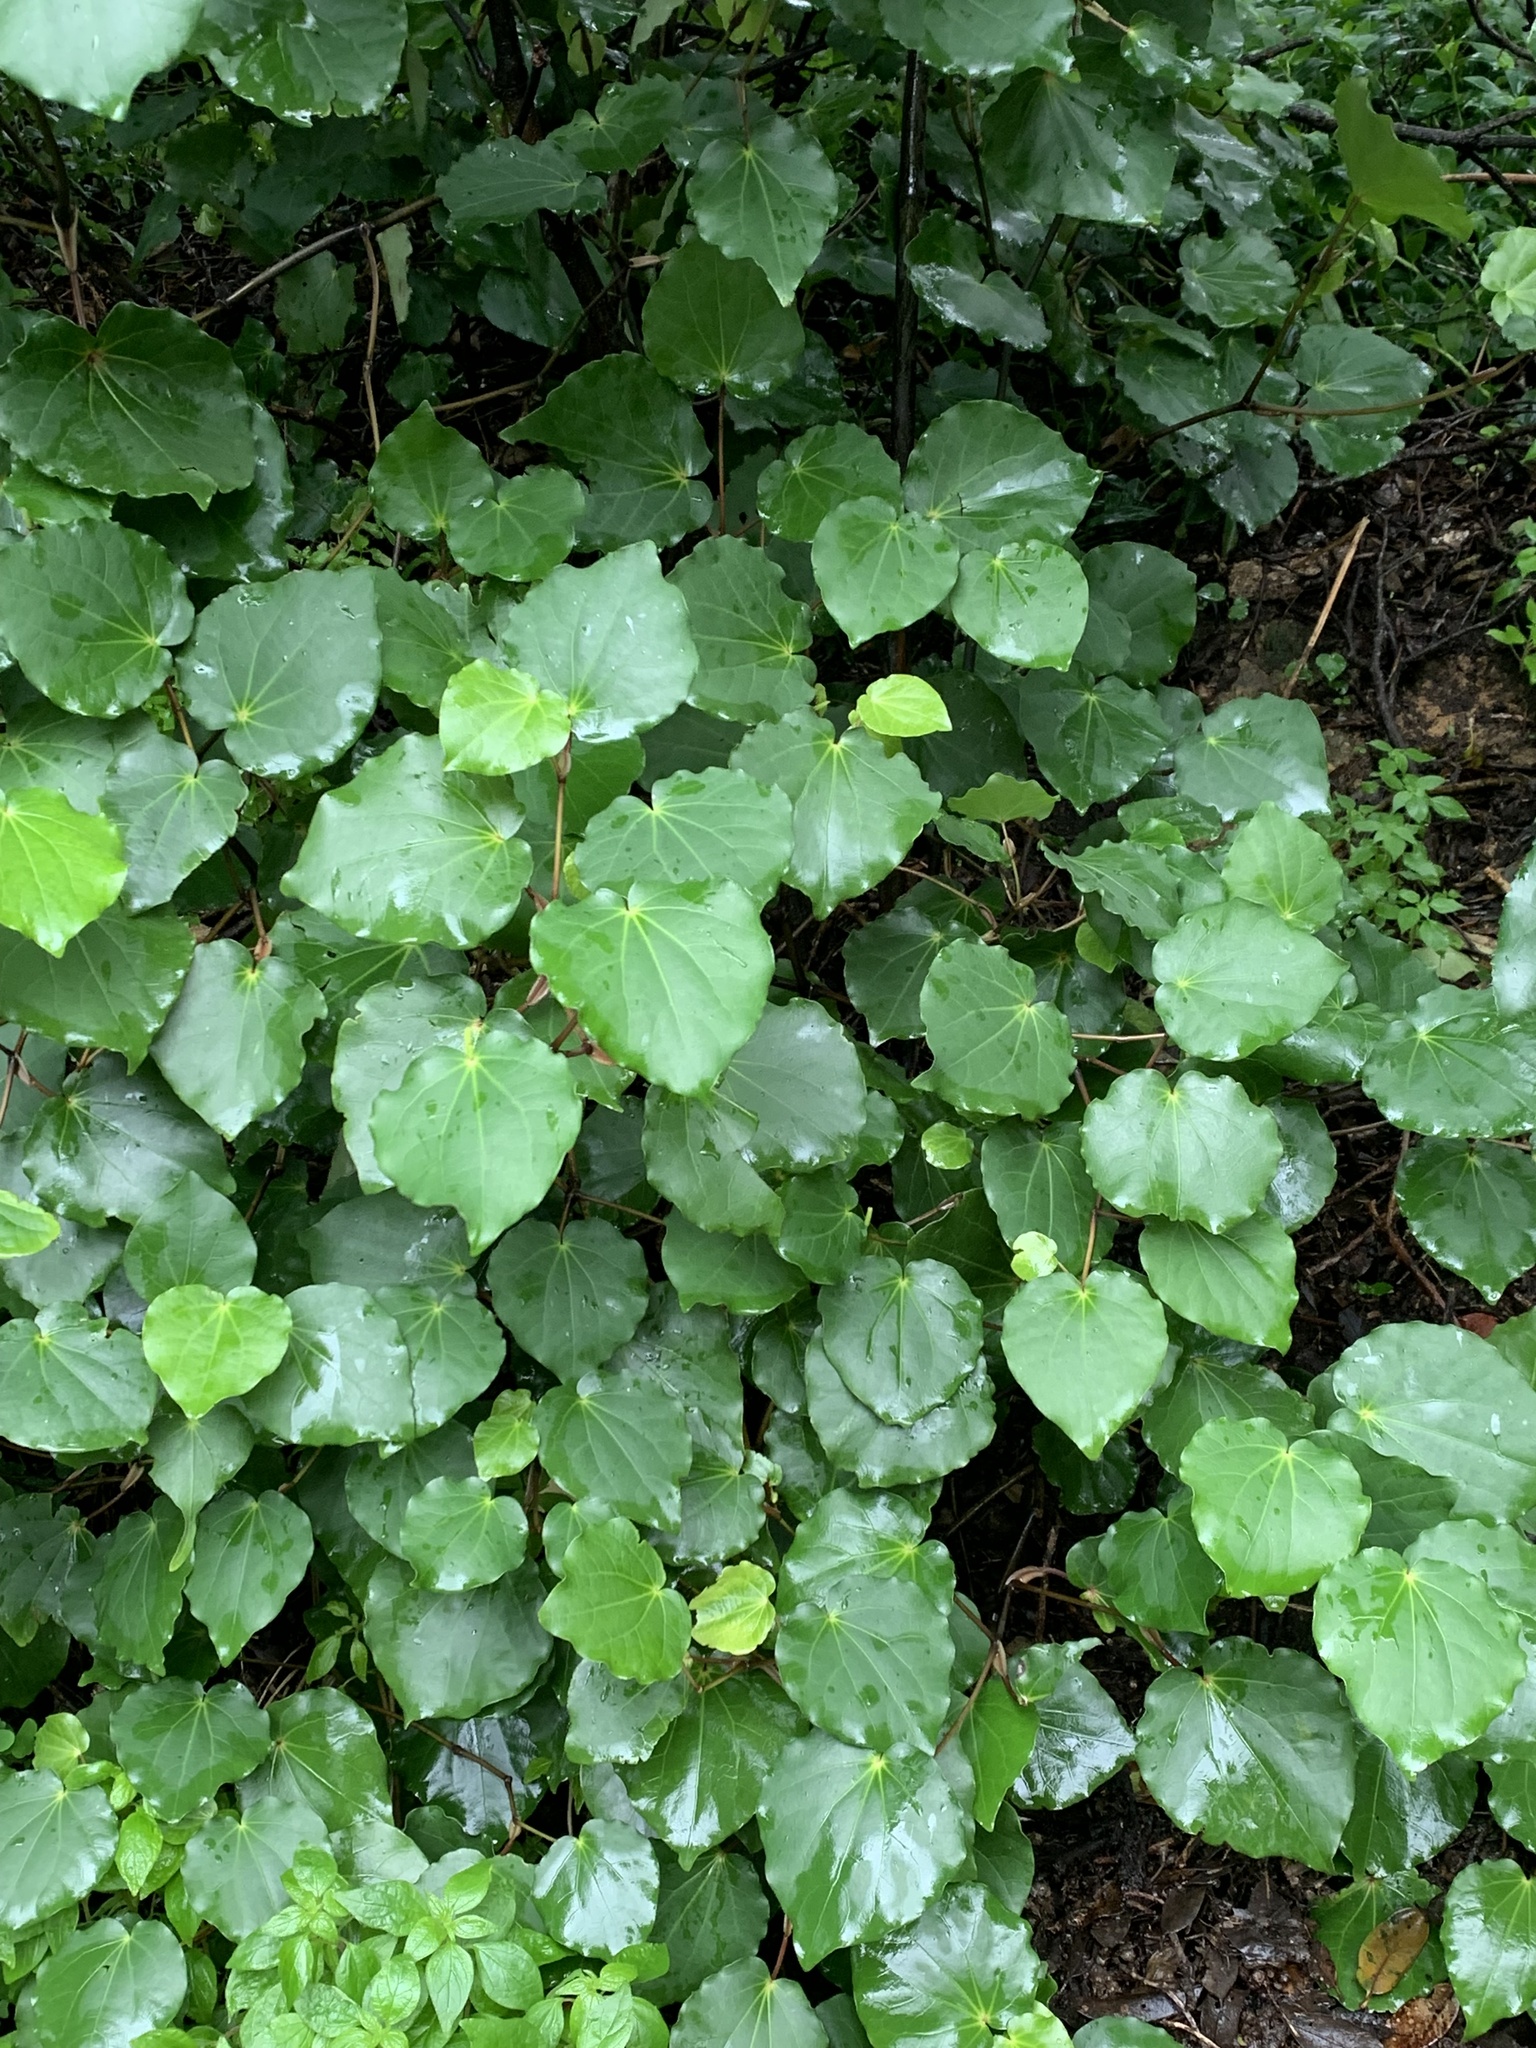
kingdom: Plantae
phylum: Tracheophyta
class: Magnoliopsida
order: Piperales
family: Piperaceae
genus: Macropiper
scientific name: Macropiper excelsum
